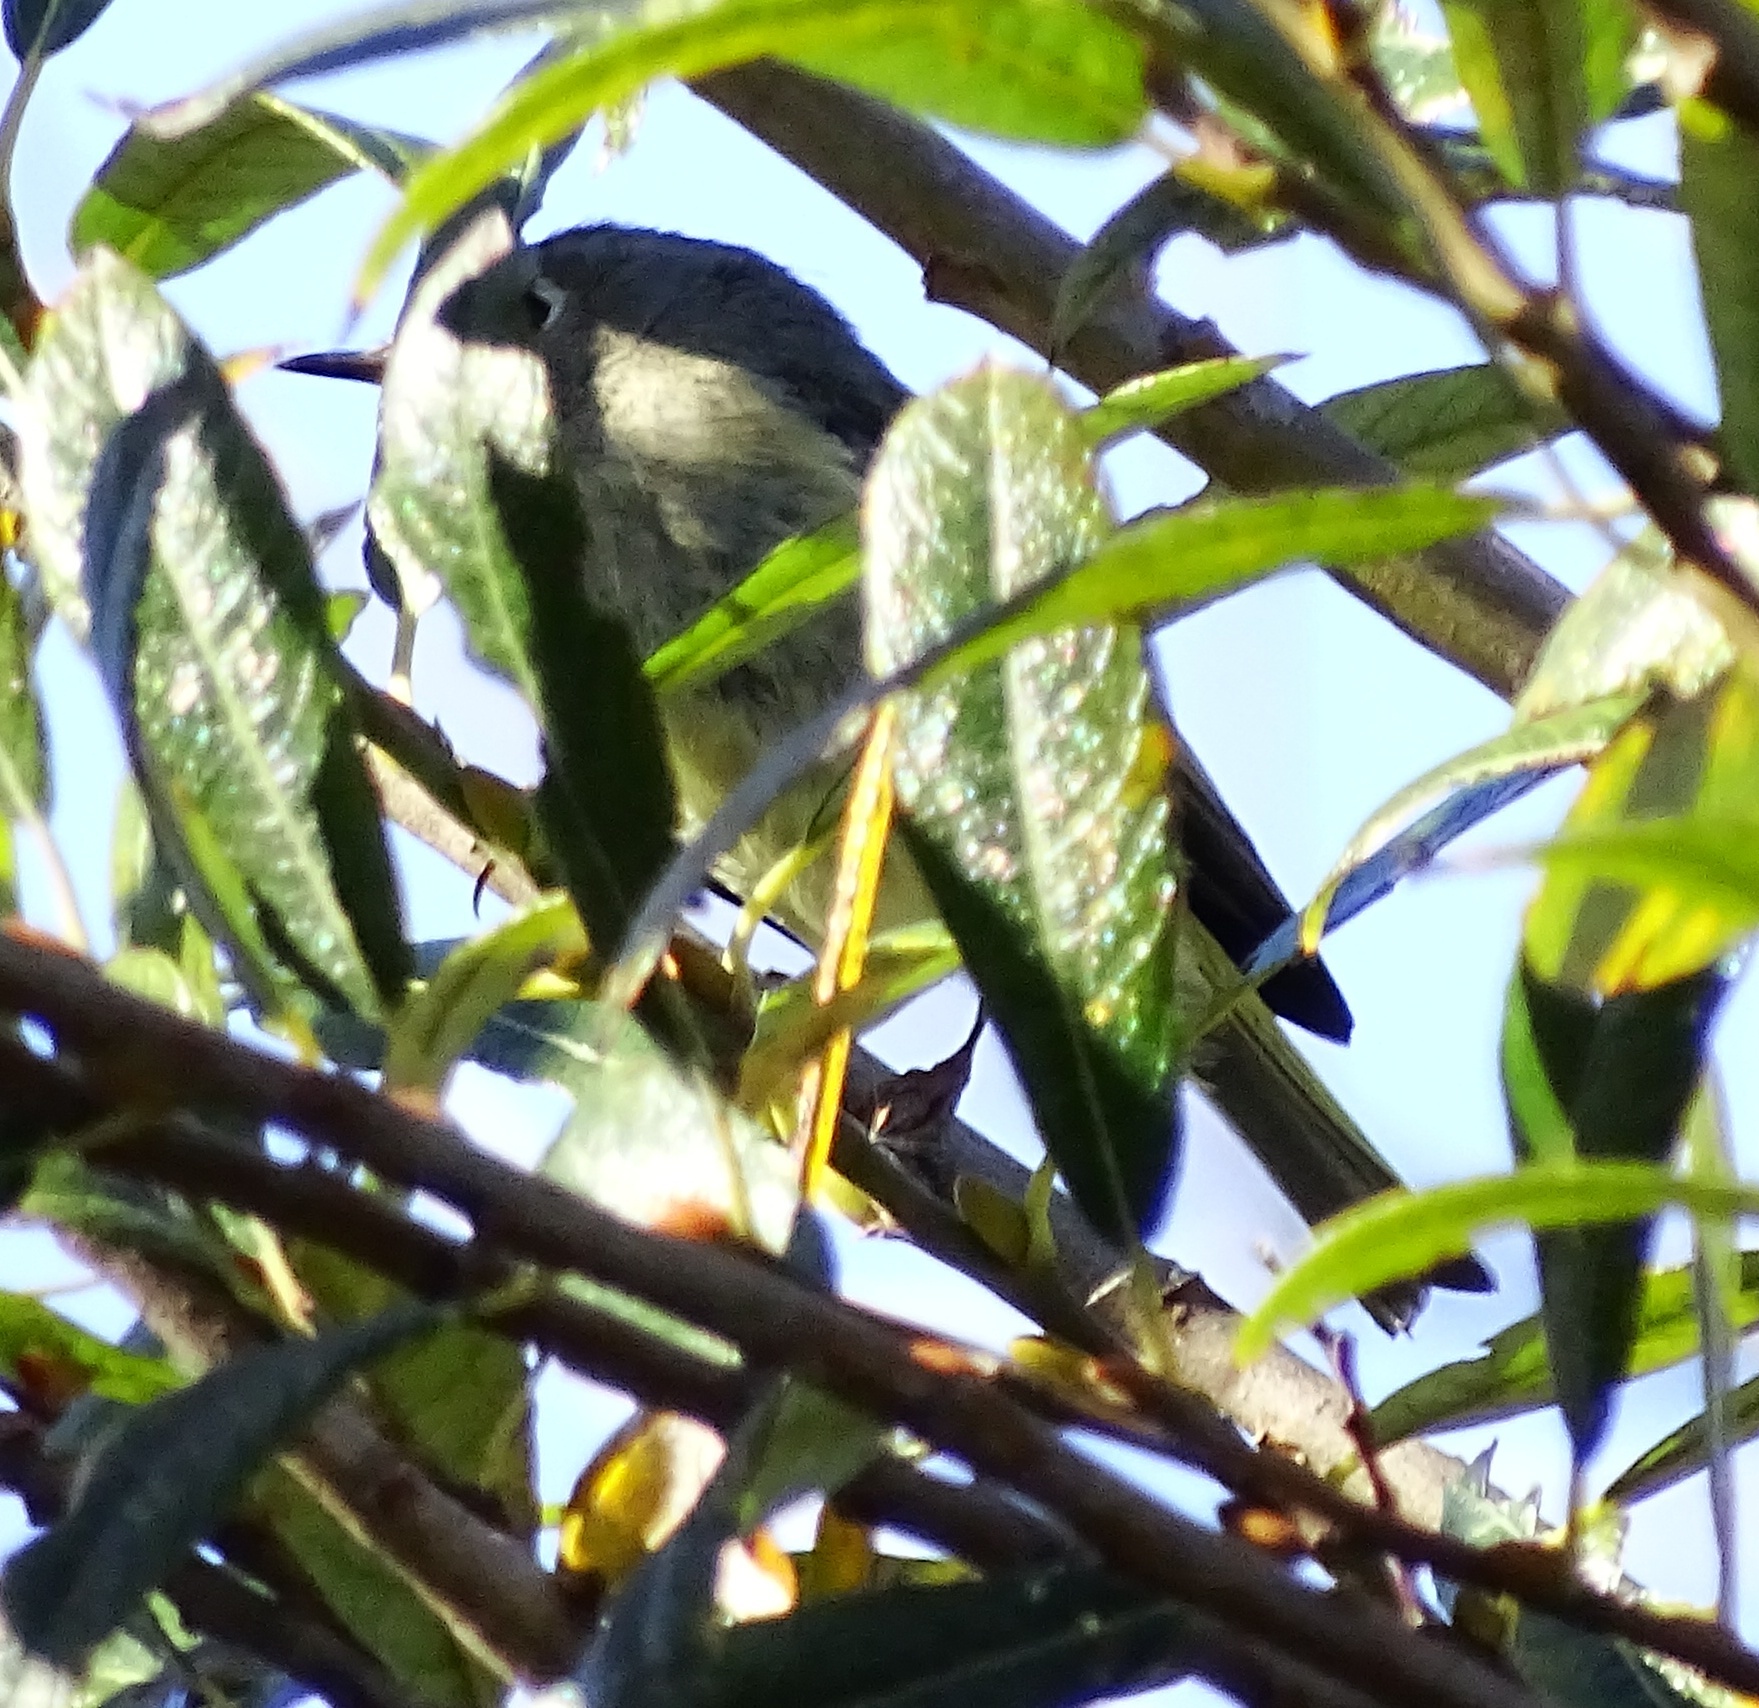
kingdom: Animalia
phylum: Chordata
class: Aves
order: Passeriformes
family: Regulidae
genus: Regulus
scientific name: Regulus calendula
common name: Ruby-crowned kinglet
